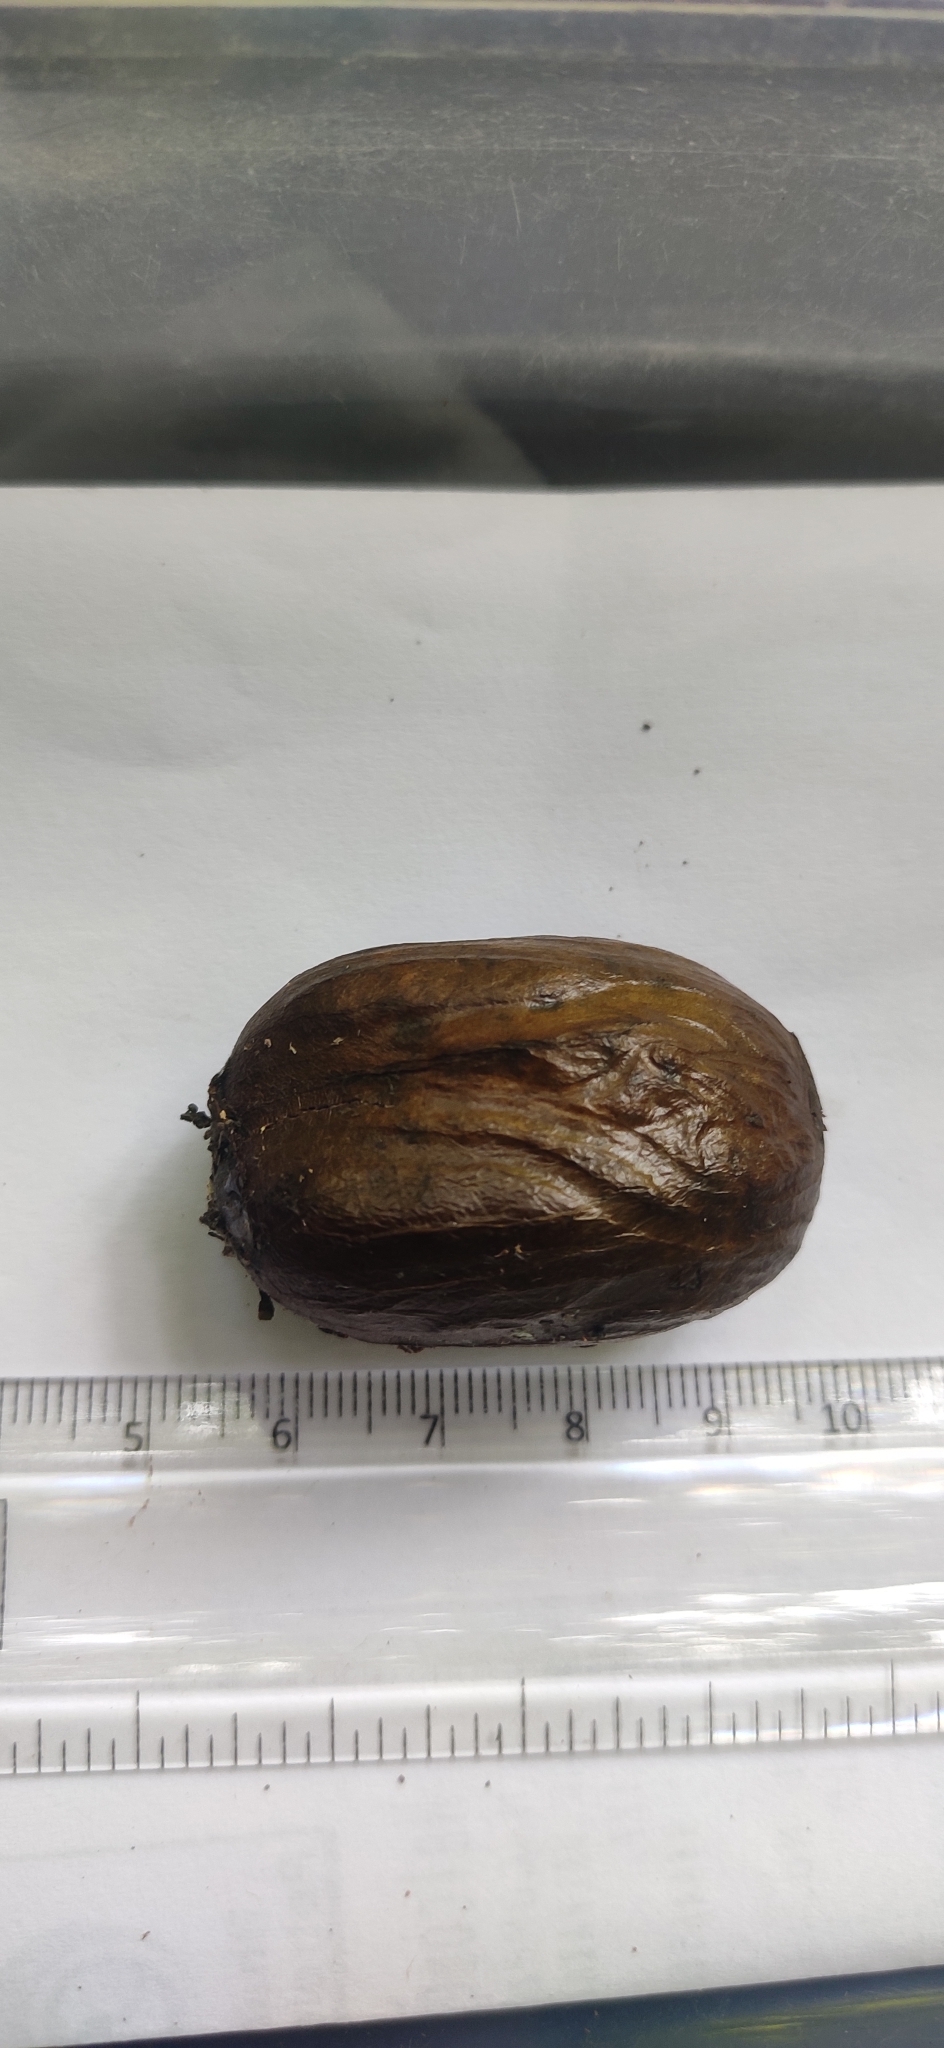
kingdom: Plantae
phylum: Tracheophyta
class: Magnoliopsida
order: Magnoliales
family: Myristicaceae
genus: Myristica
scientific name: Myristica beddomei
